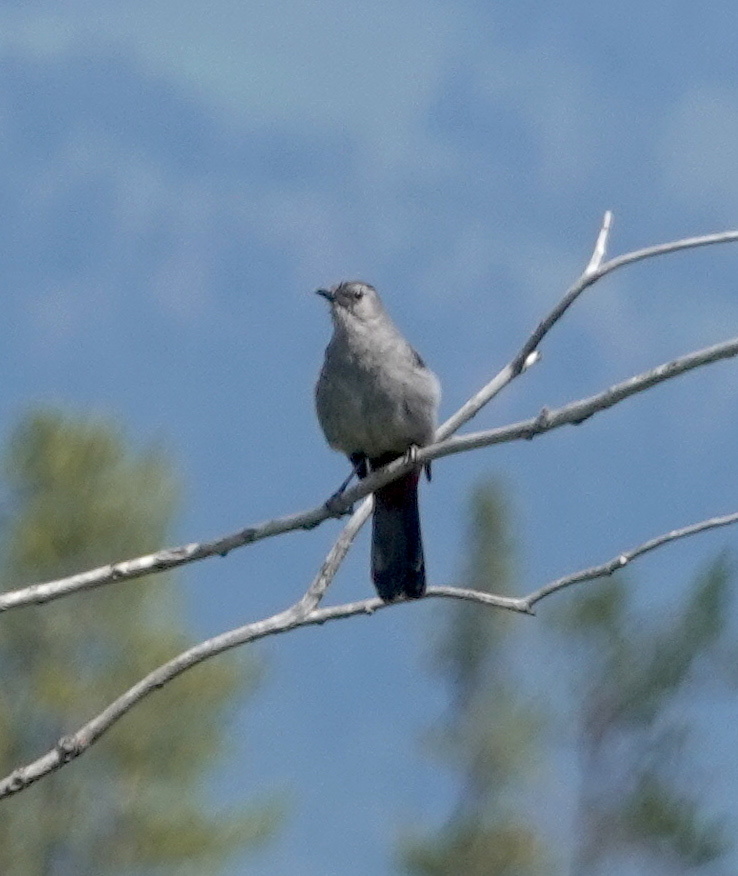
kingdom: Animalia
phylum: Chordata
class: Aves
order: Passeriformes
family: Mimidae
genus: Dumetella
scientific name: Dumetella carolinensis
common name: Gray catbird
